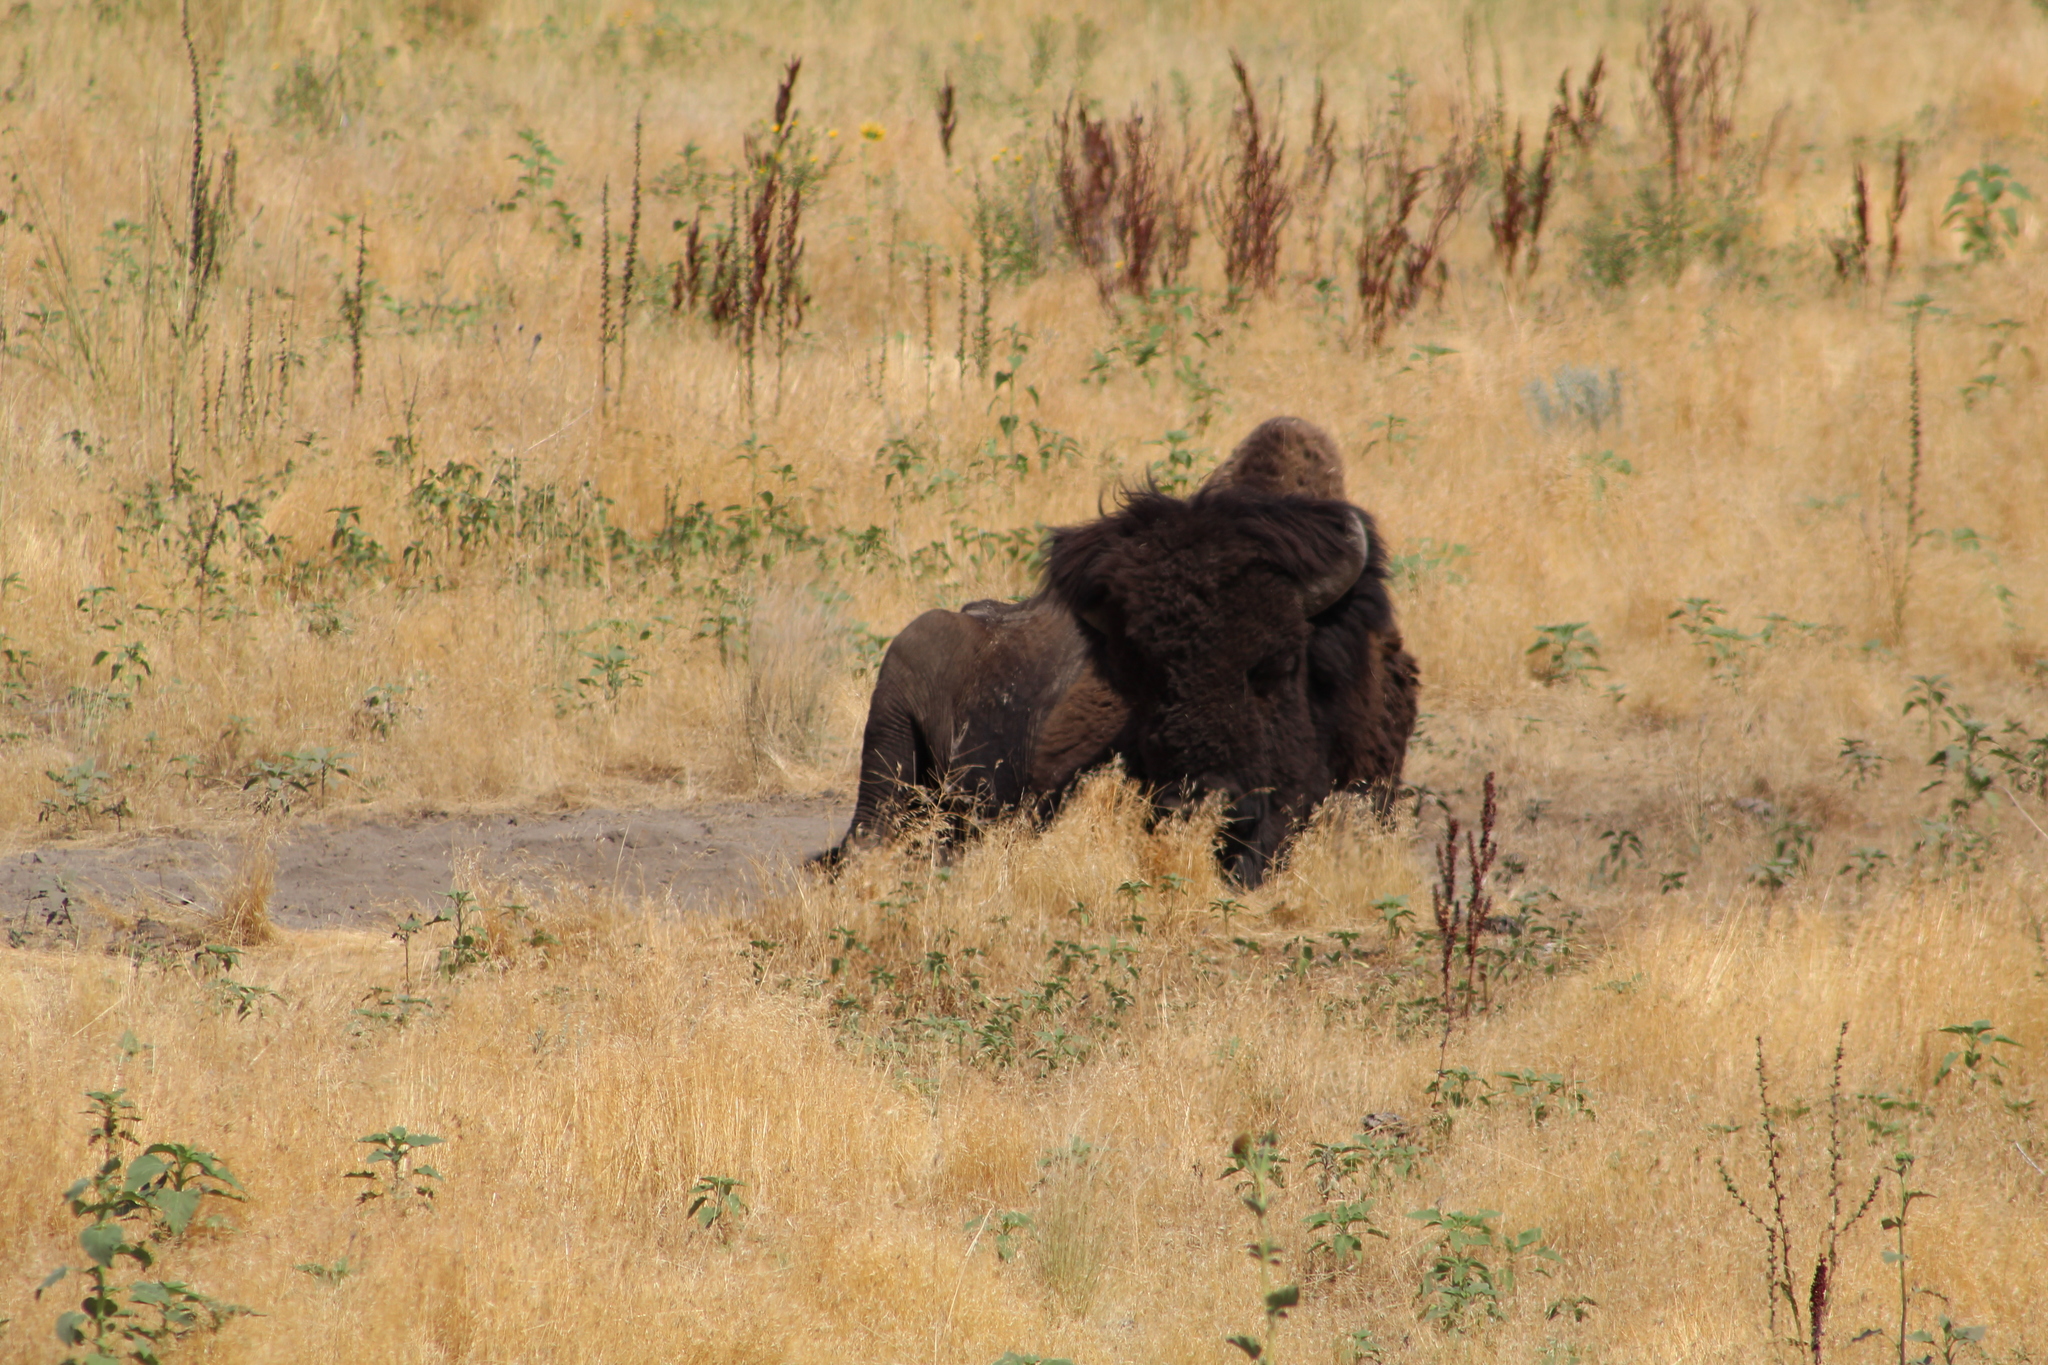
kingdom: Animalia
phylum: Chordata
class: Mammalia
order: Artiodactyla
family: Bovidae
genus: Bison
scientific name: Bison bison
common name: American bison
